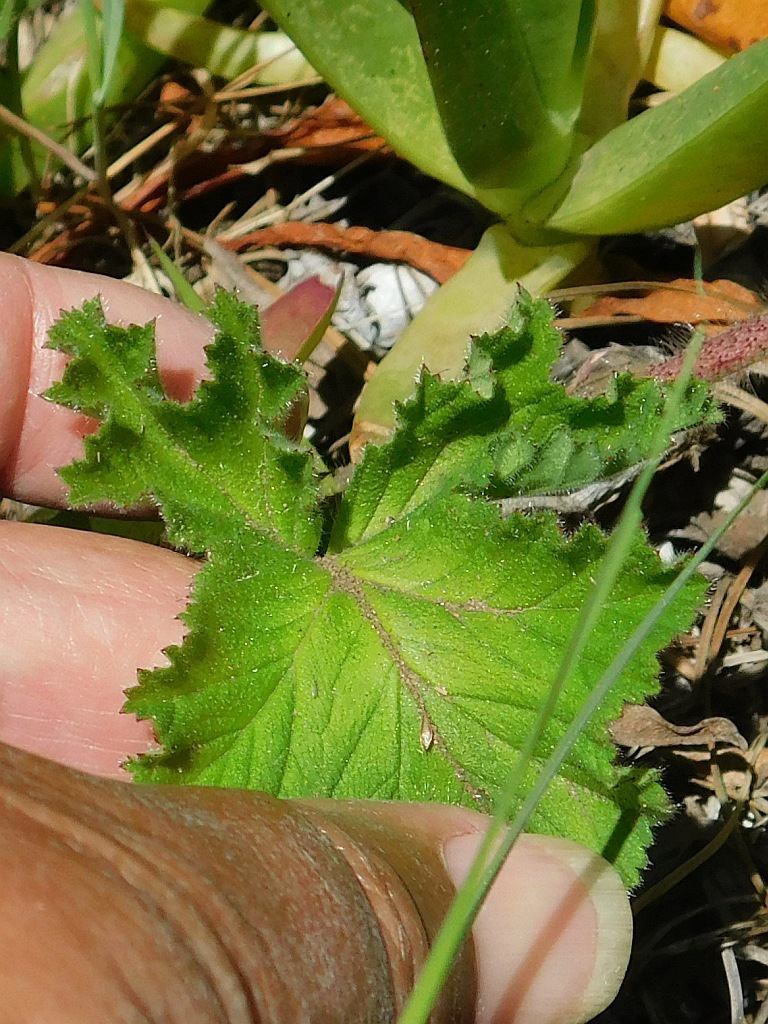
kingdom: Plantae
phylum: Tracheophyta
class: Magnoliopsida
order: Geraniales
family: Geraniaceae
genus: Pelargonium
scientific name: Pelargonium capitatum
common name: Rose scented geranium
